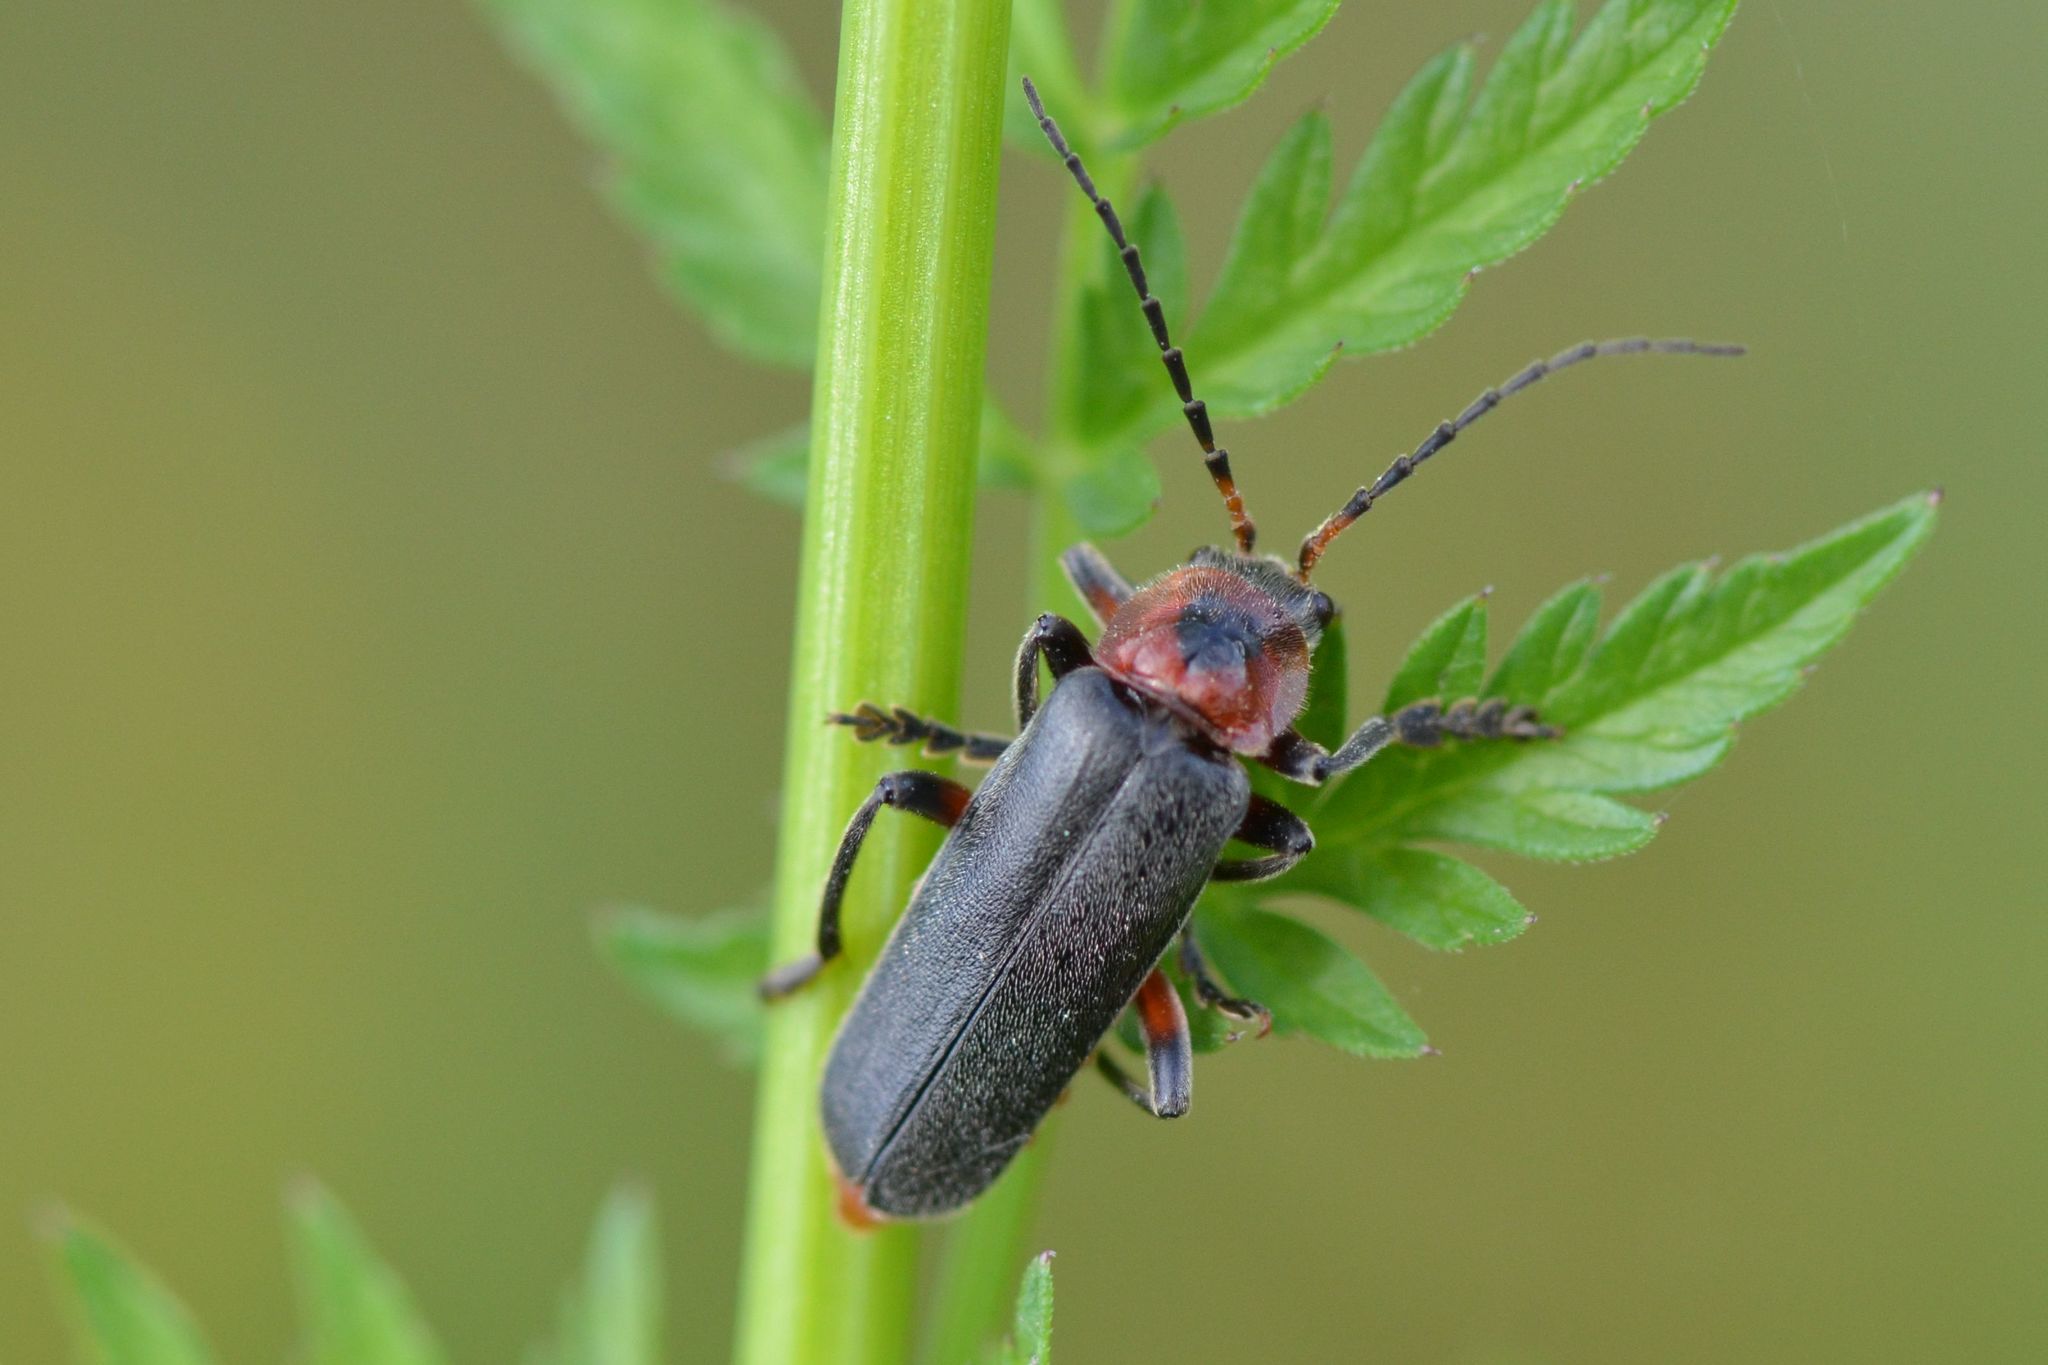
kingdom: Animalia
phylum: Arthropoda
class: Insecta
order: Coleoptera
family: Cantharidae
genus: Cantharis
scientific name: Cantharis rustica
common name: Soldier beetle
